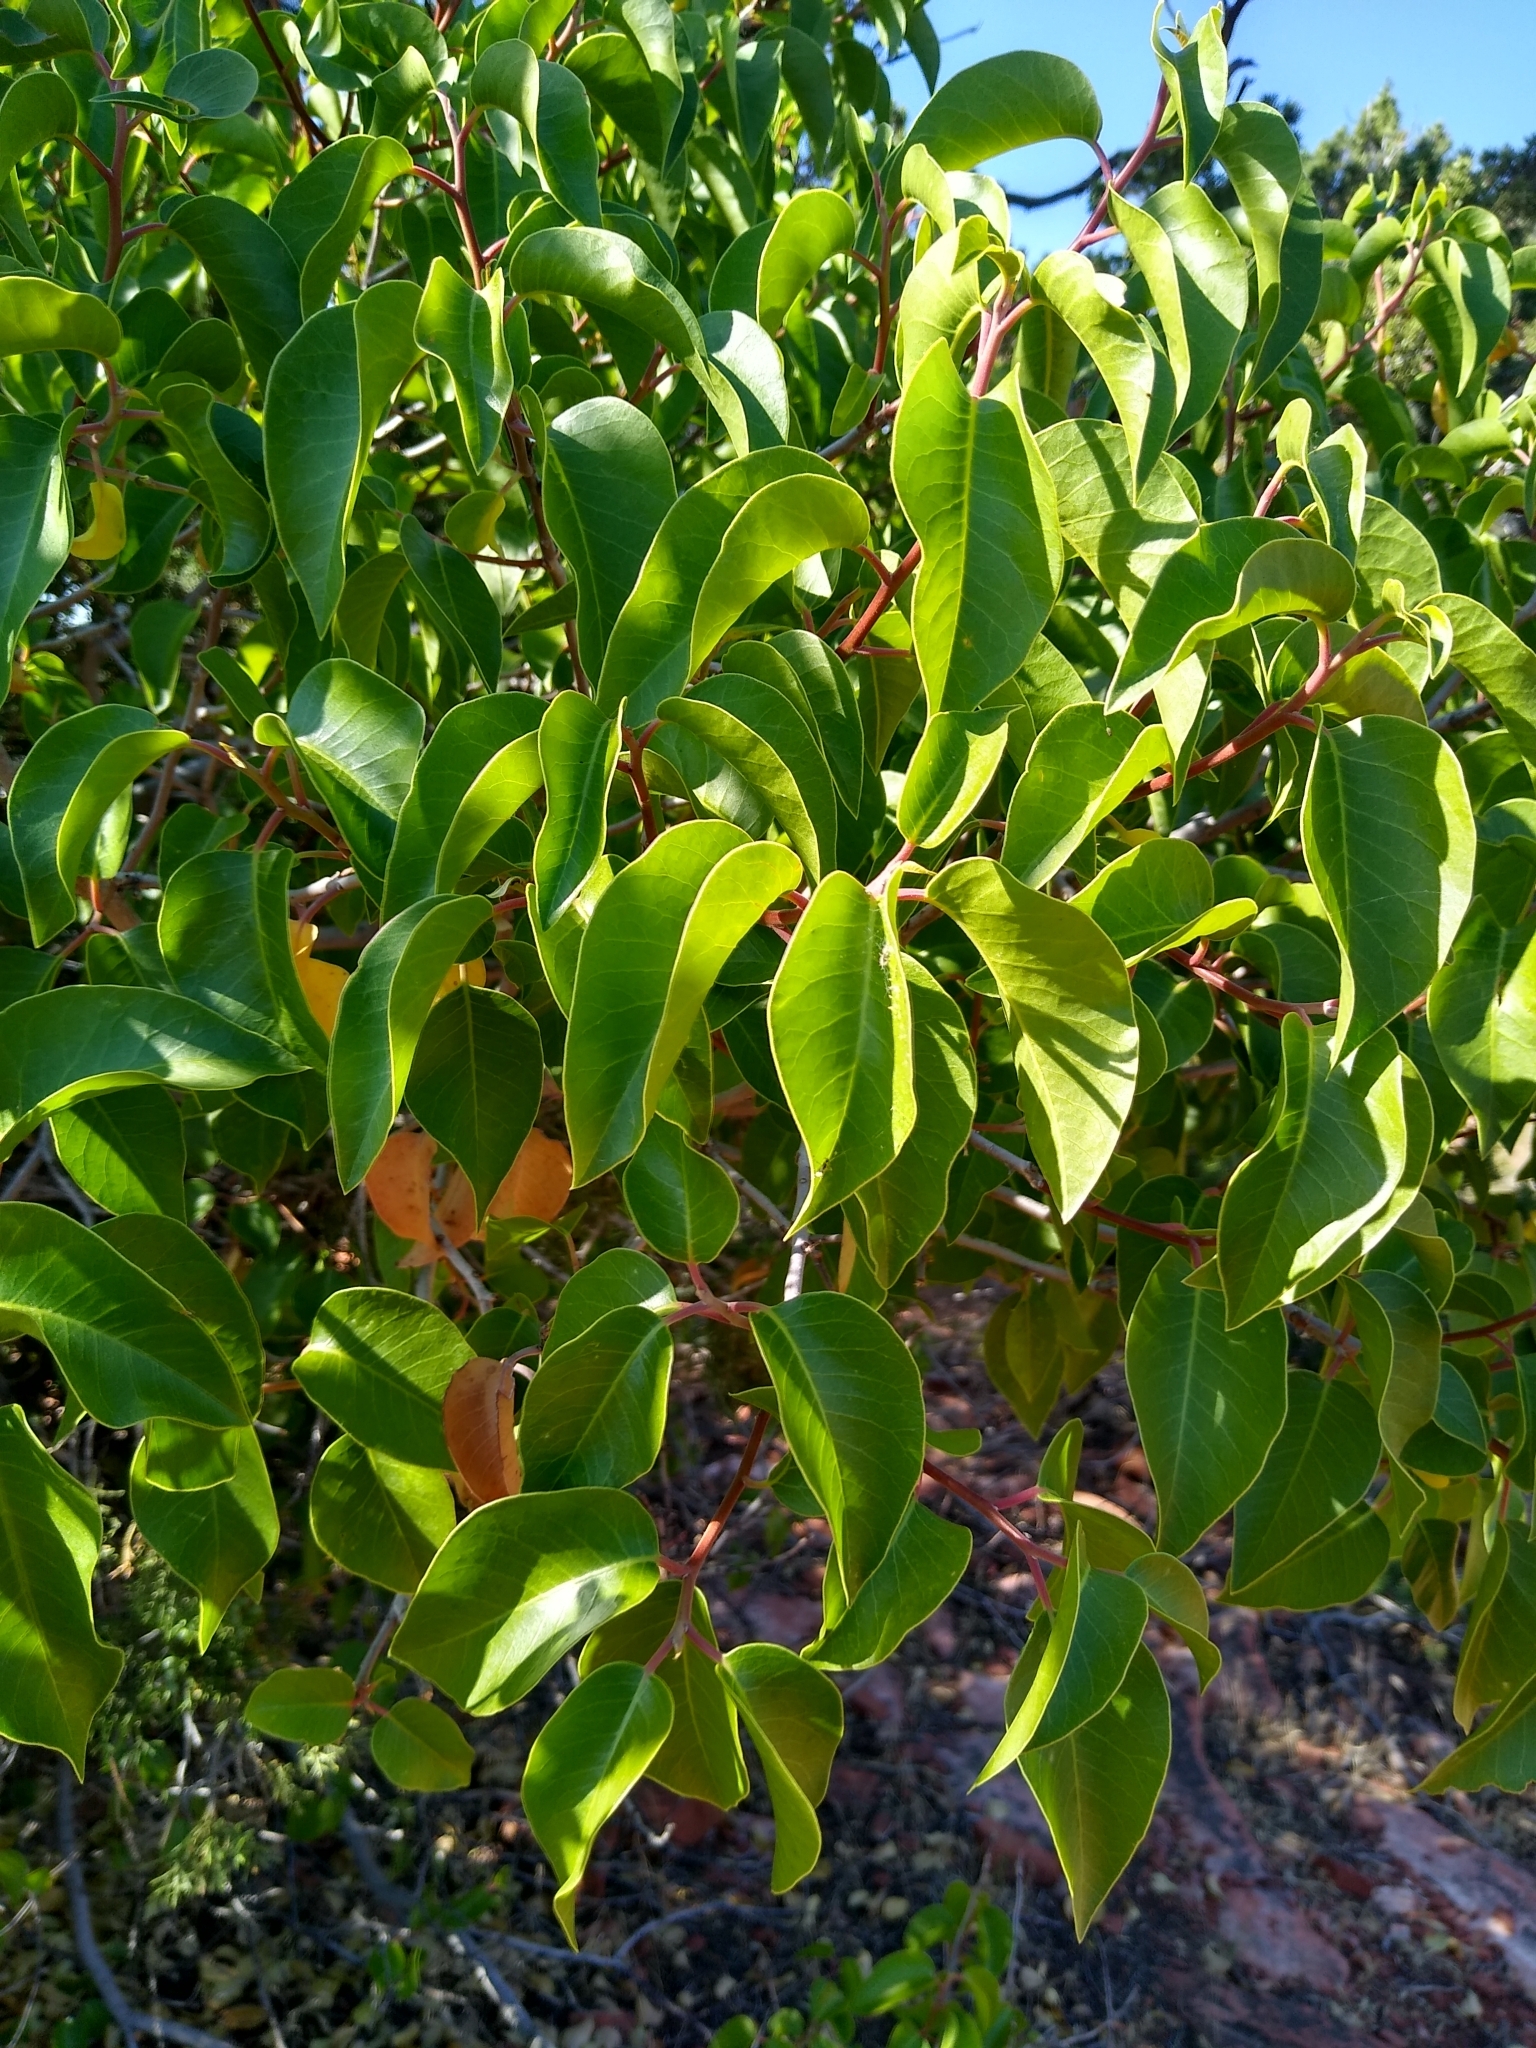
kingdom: Plantae
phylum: Tracheophyta
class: Magnoliopsida
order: Sapindales
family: Anacardiaceae
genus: Rhus
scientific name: Rhus ovata
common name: Sugar sumac
